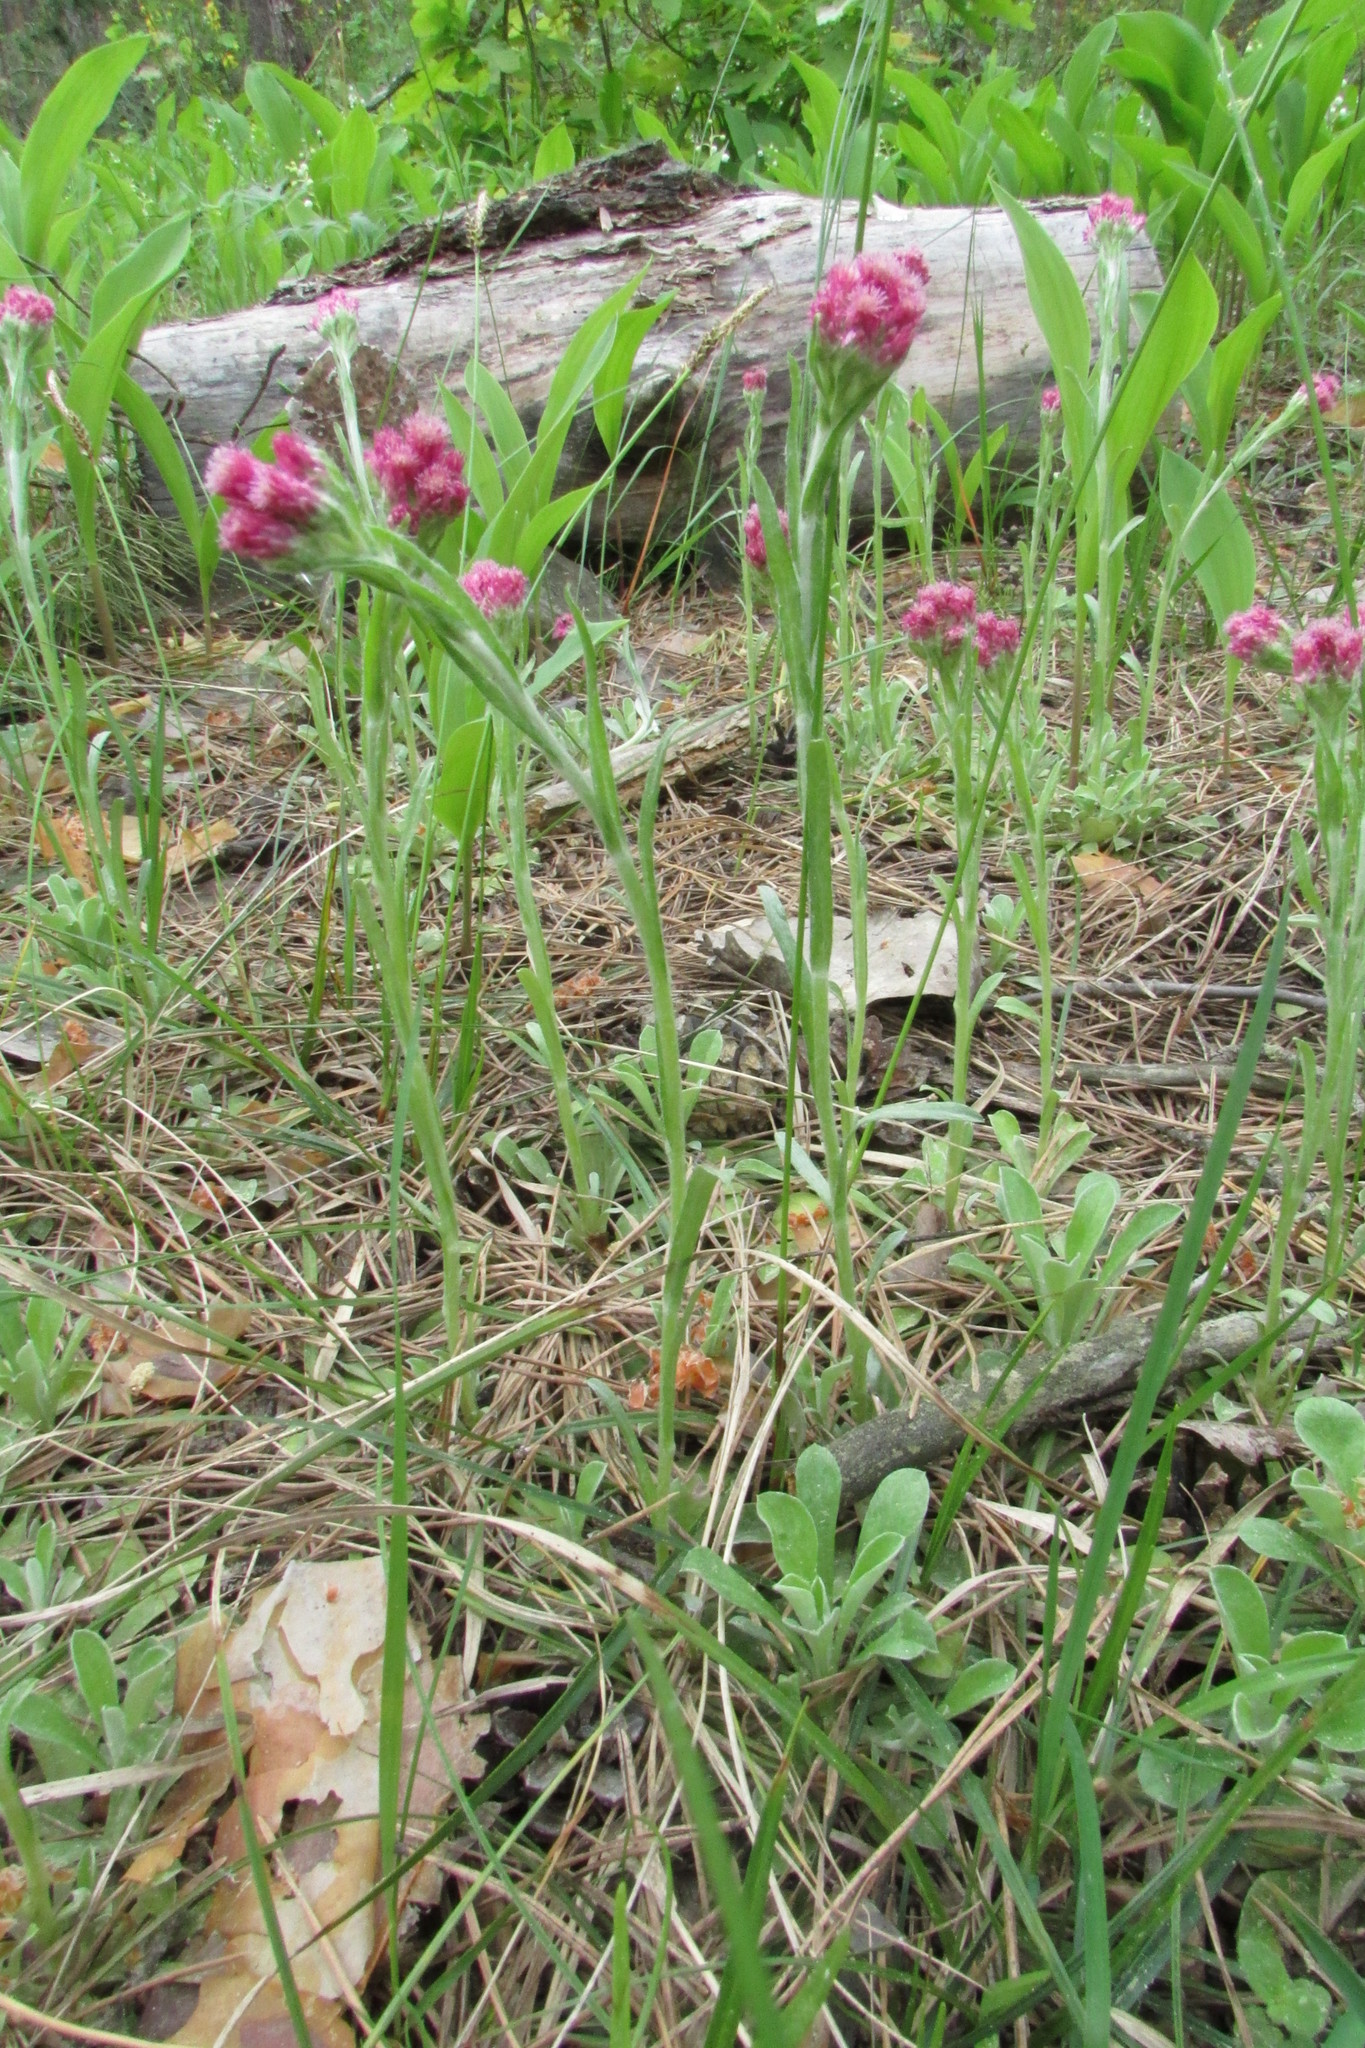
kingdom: Plantae
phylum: Tracheophyta
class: Magnoliopsida
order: Asterales
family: Asteraceae
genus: Antennaria
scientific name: Antennaria dioica
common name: Mountain everlasting
